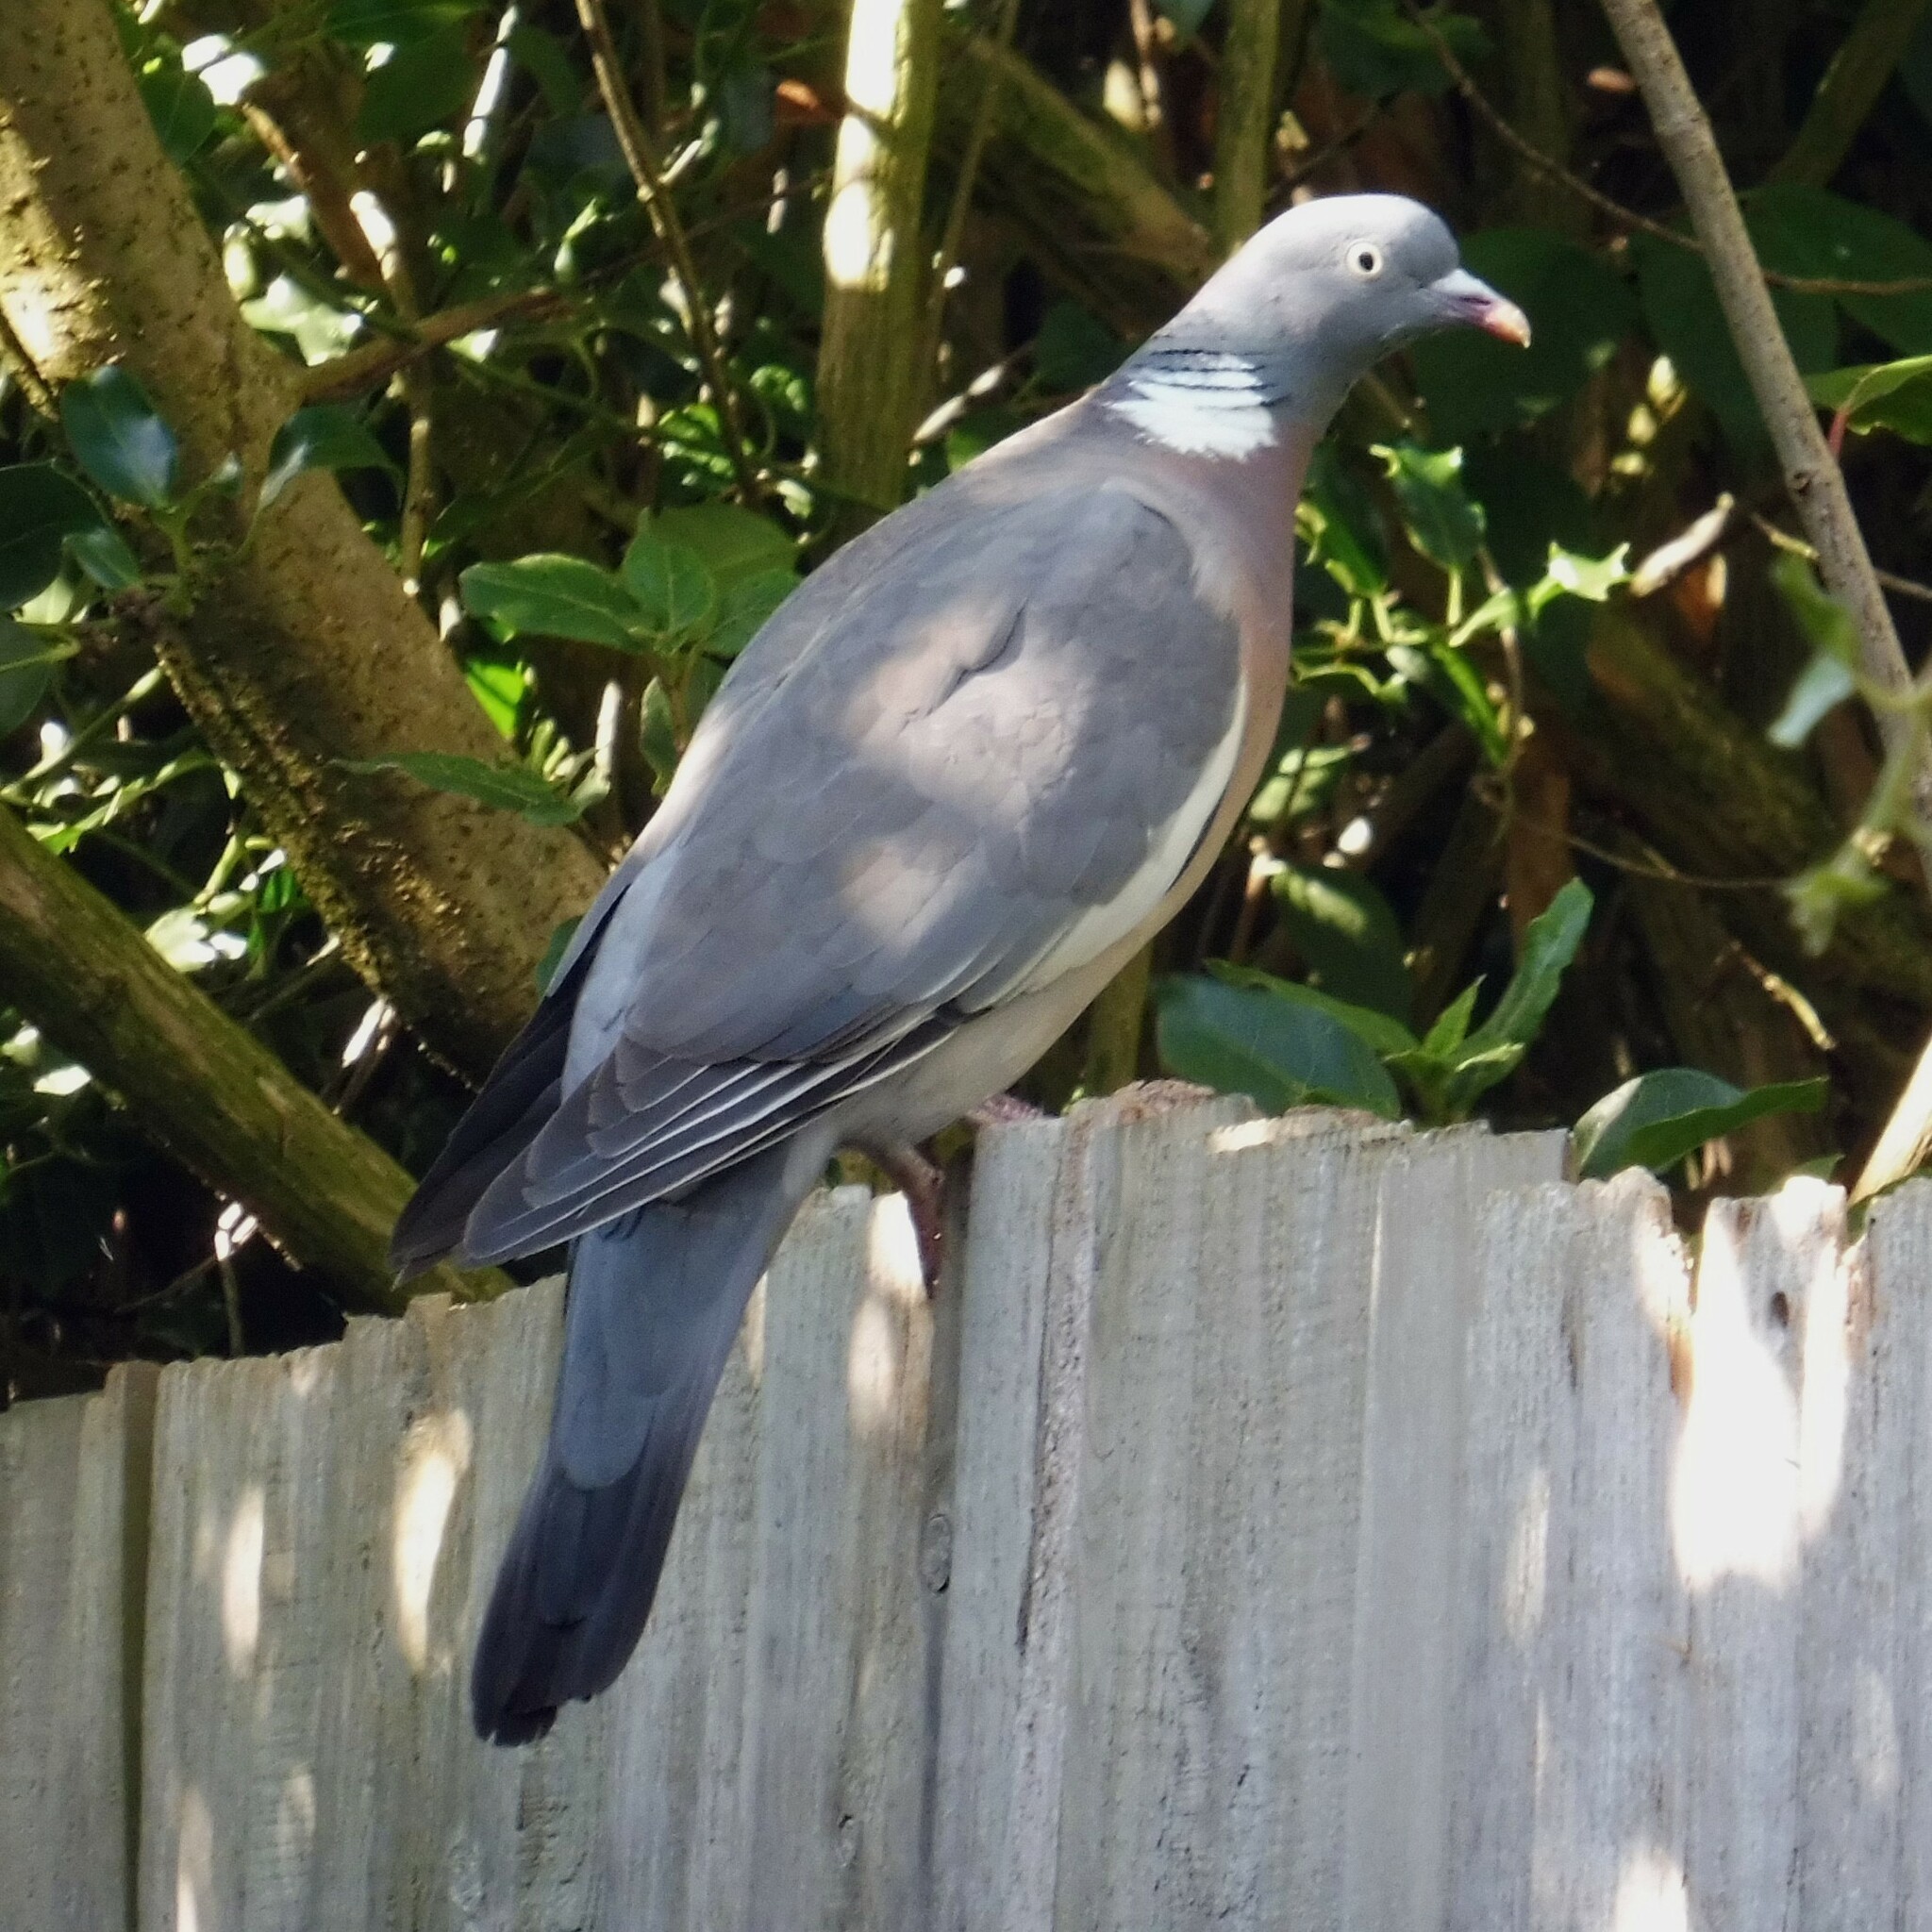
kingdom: Animalia
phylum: Chordata
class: Aves
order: Columbiformes
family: Columbidae
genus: Columba
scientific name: Columba palumbus
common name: Common wood pigeon
